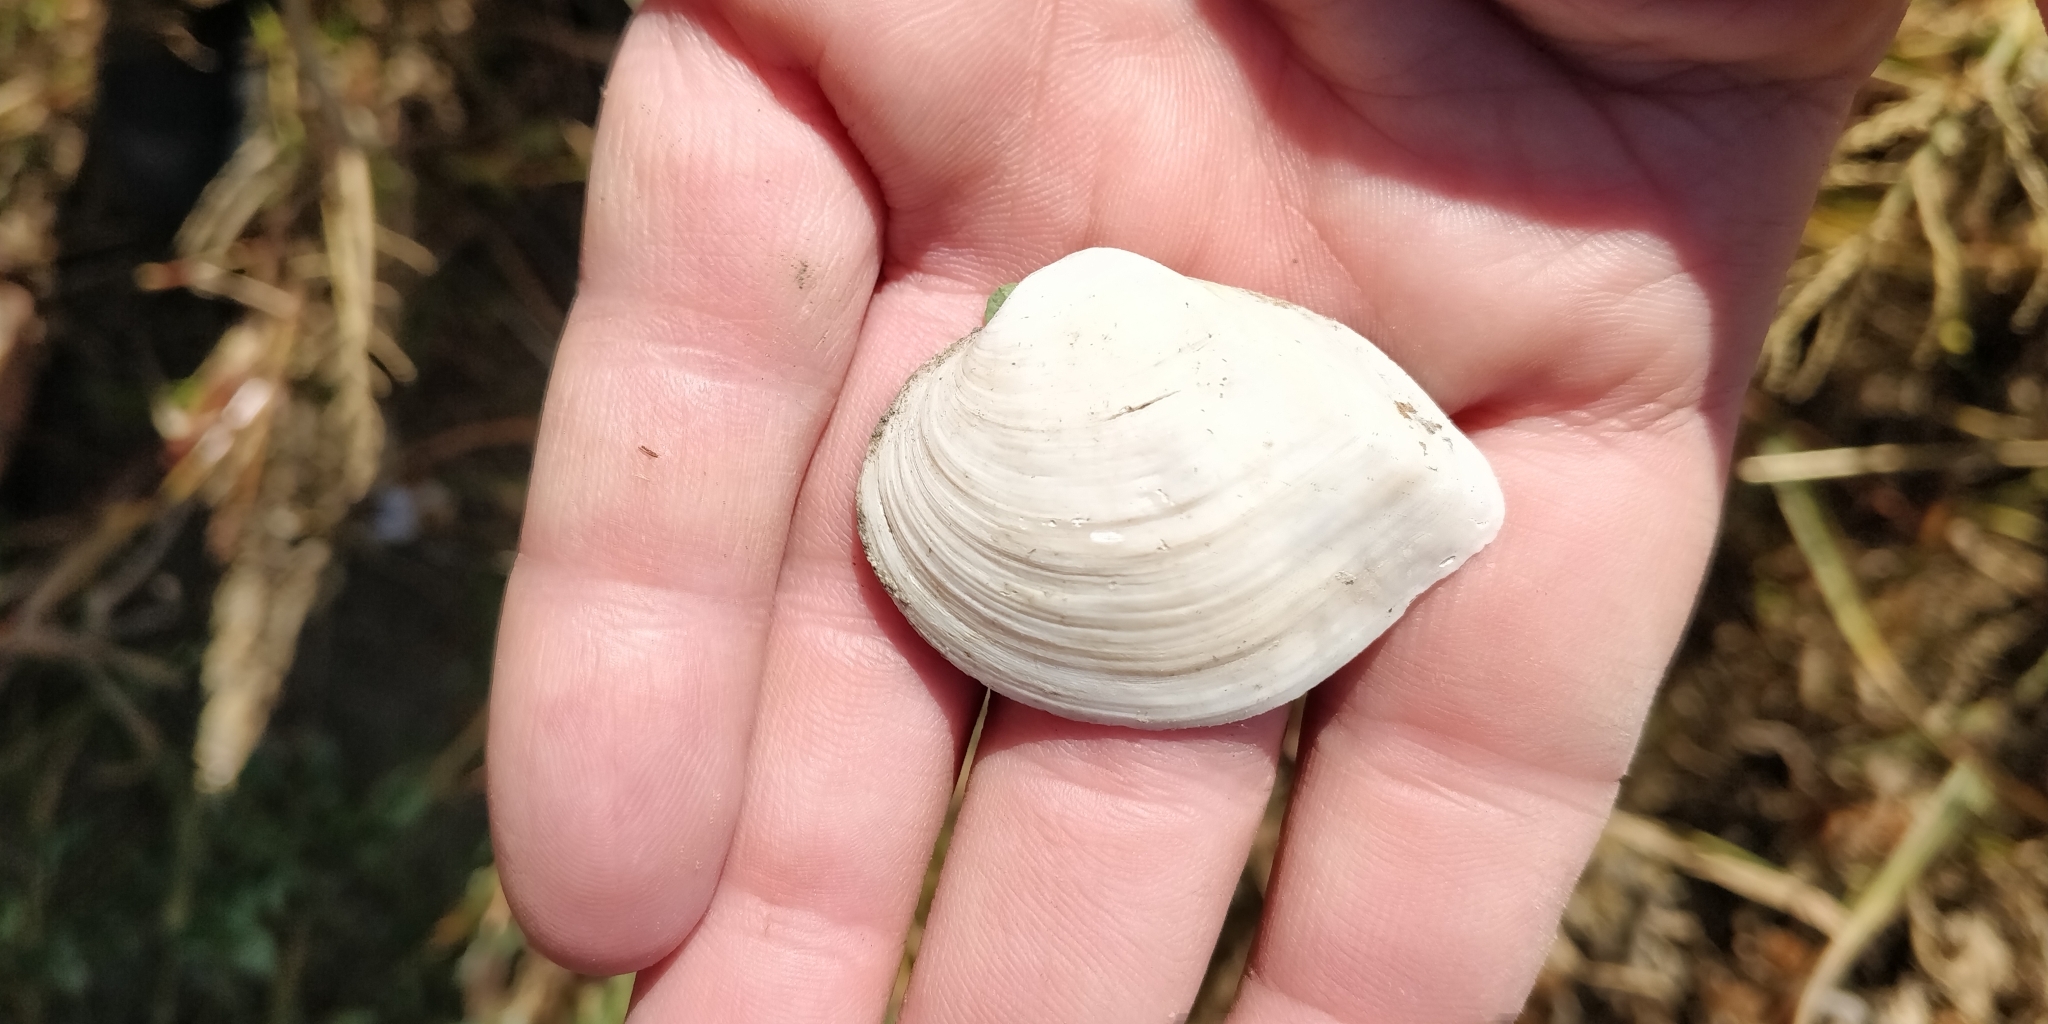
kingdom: Animalia
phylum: Mollusca
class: Bivalvia
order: Unionida
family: Unionidae
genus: Truncilla
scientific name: Truncilla truncata
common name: Deertoe
